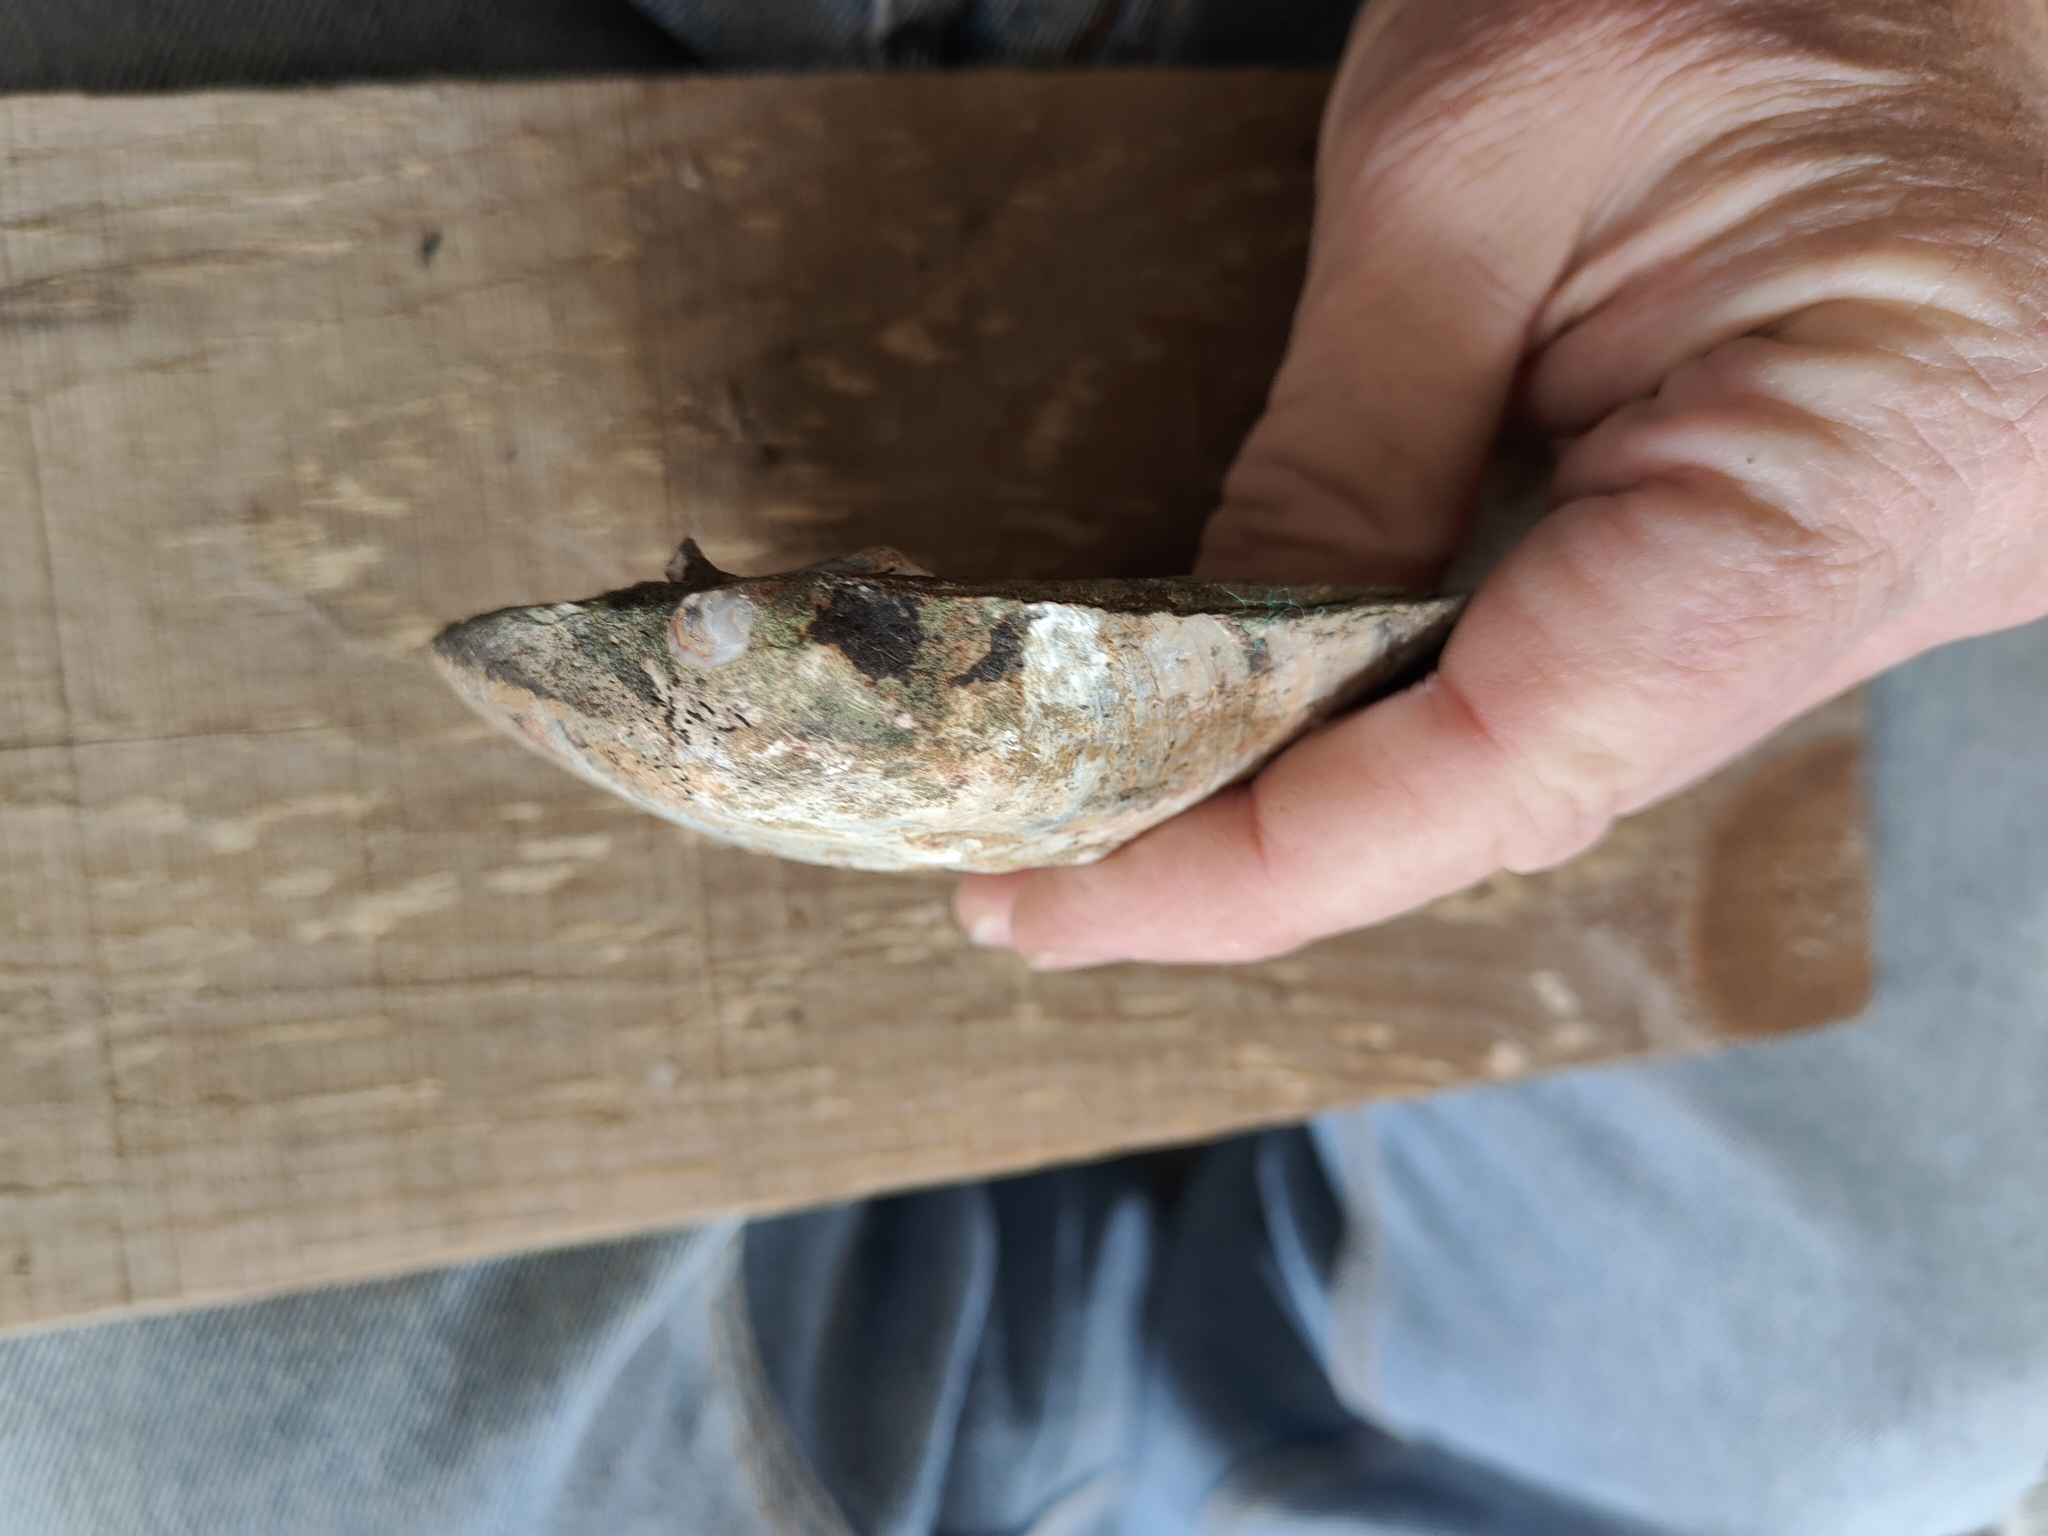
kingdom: Animalia
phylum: Mollusca
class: Bivalvia
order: Unionida
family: Unionidae
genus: Amblema
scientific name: Amblema plicata
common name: Threeridge
